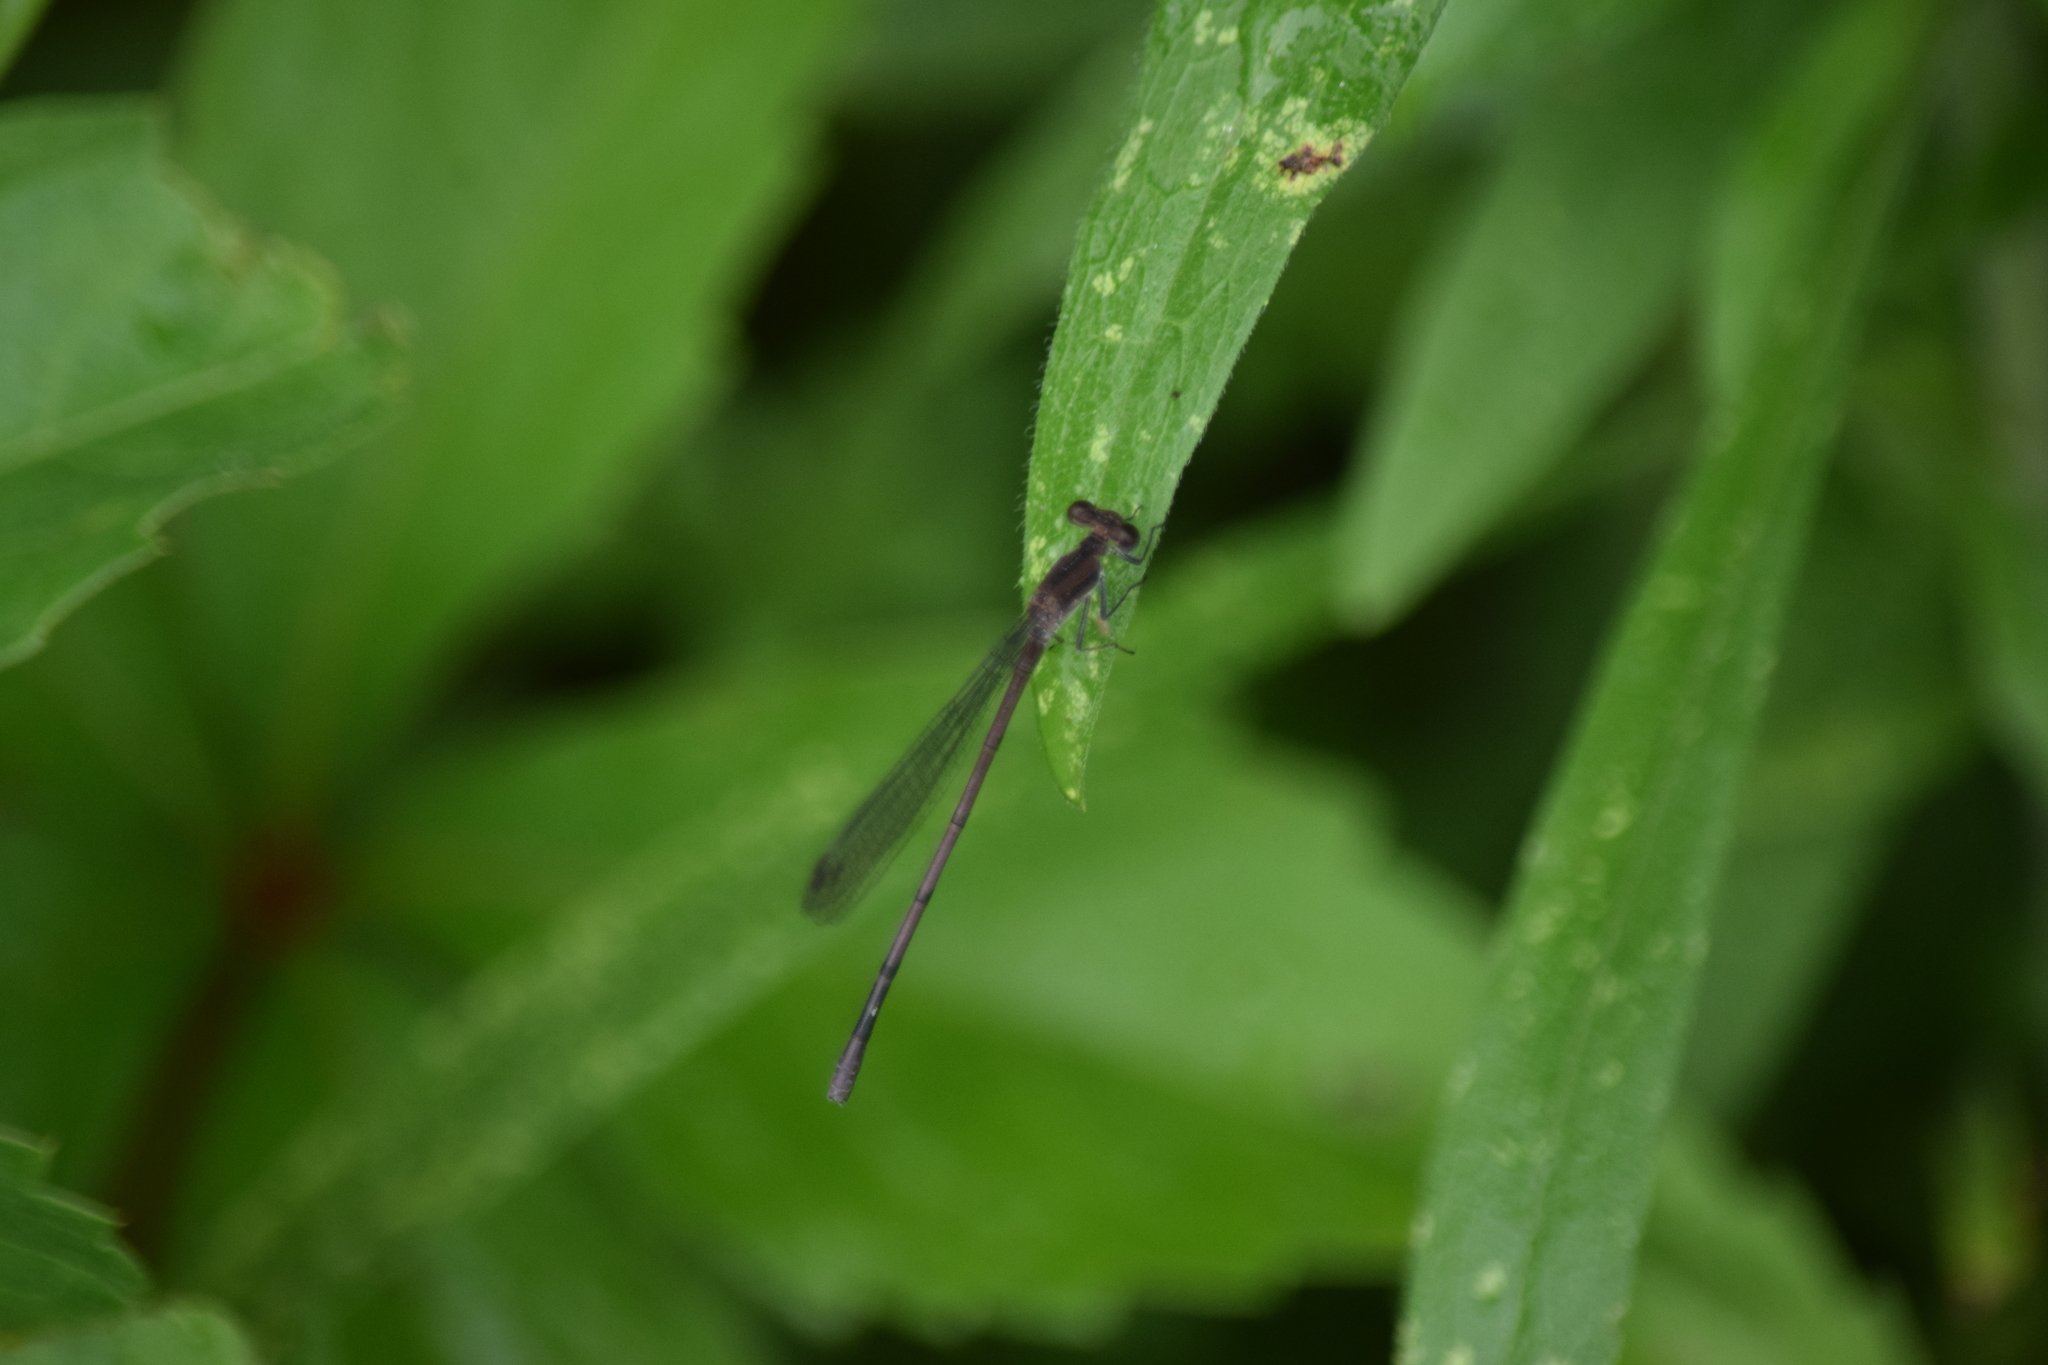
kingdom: Animalia
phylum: Arthropoda
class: Insecta
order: Odonata
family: Coenagrionidae
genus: Argia
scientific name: Argia fumipennis
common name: Variable dancer
